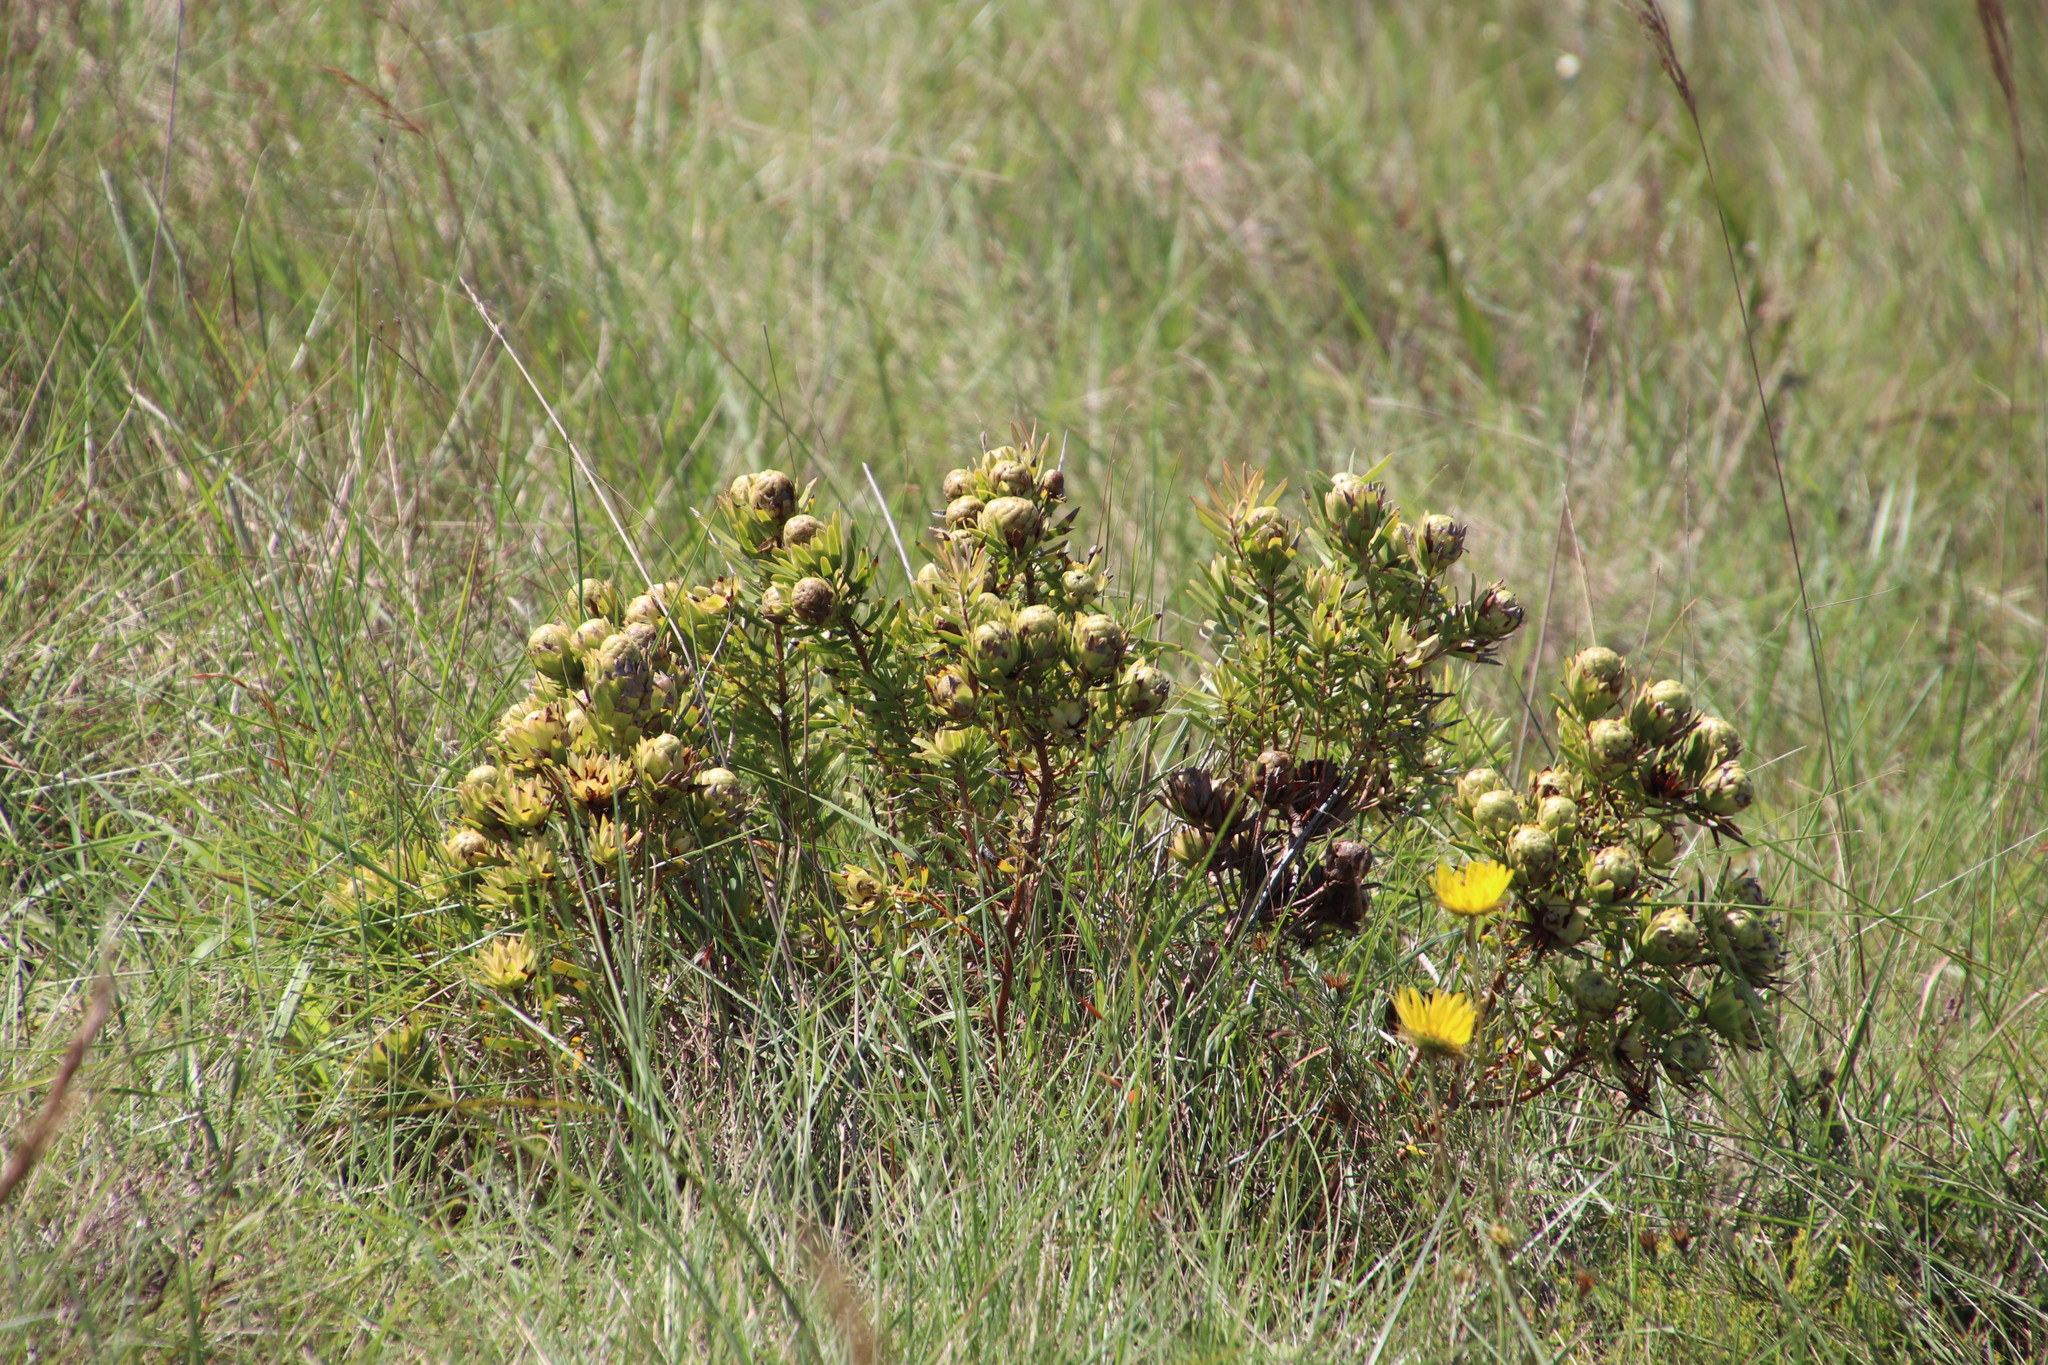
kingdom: Plantae
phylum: Tracheophyta
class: Magnoliopsida
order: Proteales
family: Proteaceae
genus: Leucadendron
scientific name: Leucadendron spissifolium
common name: Spear-leaf conebush
